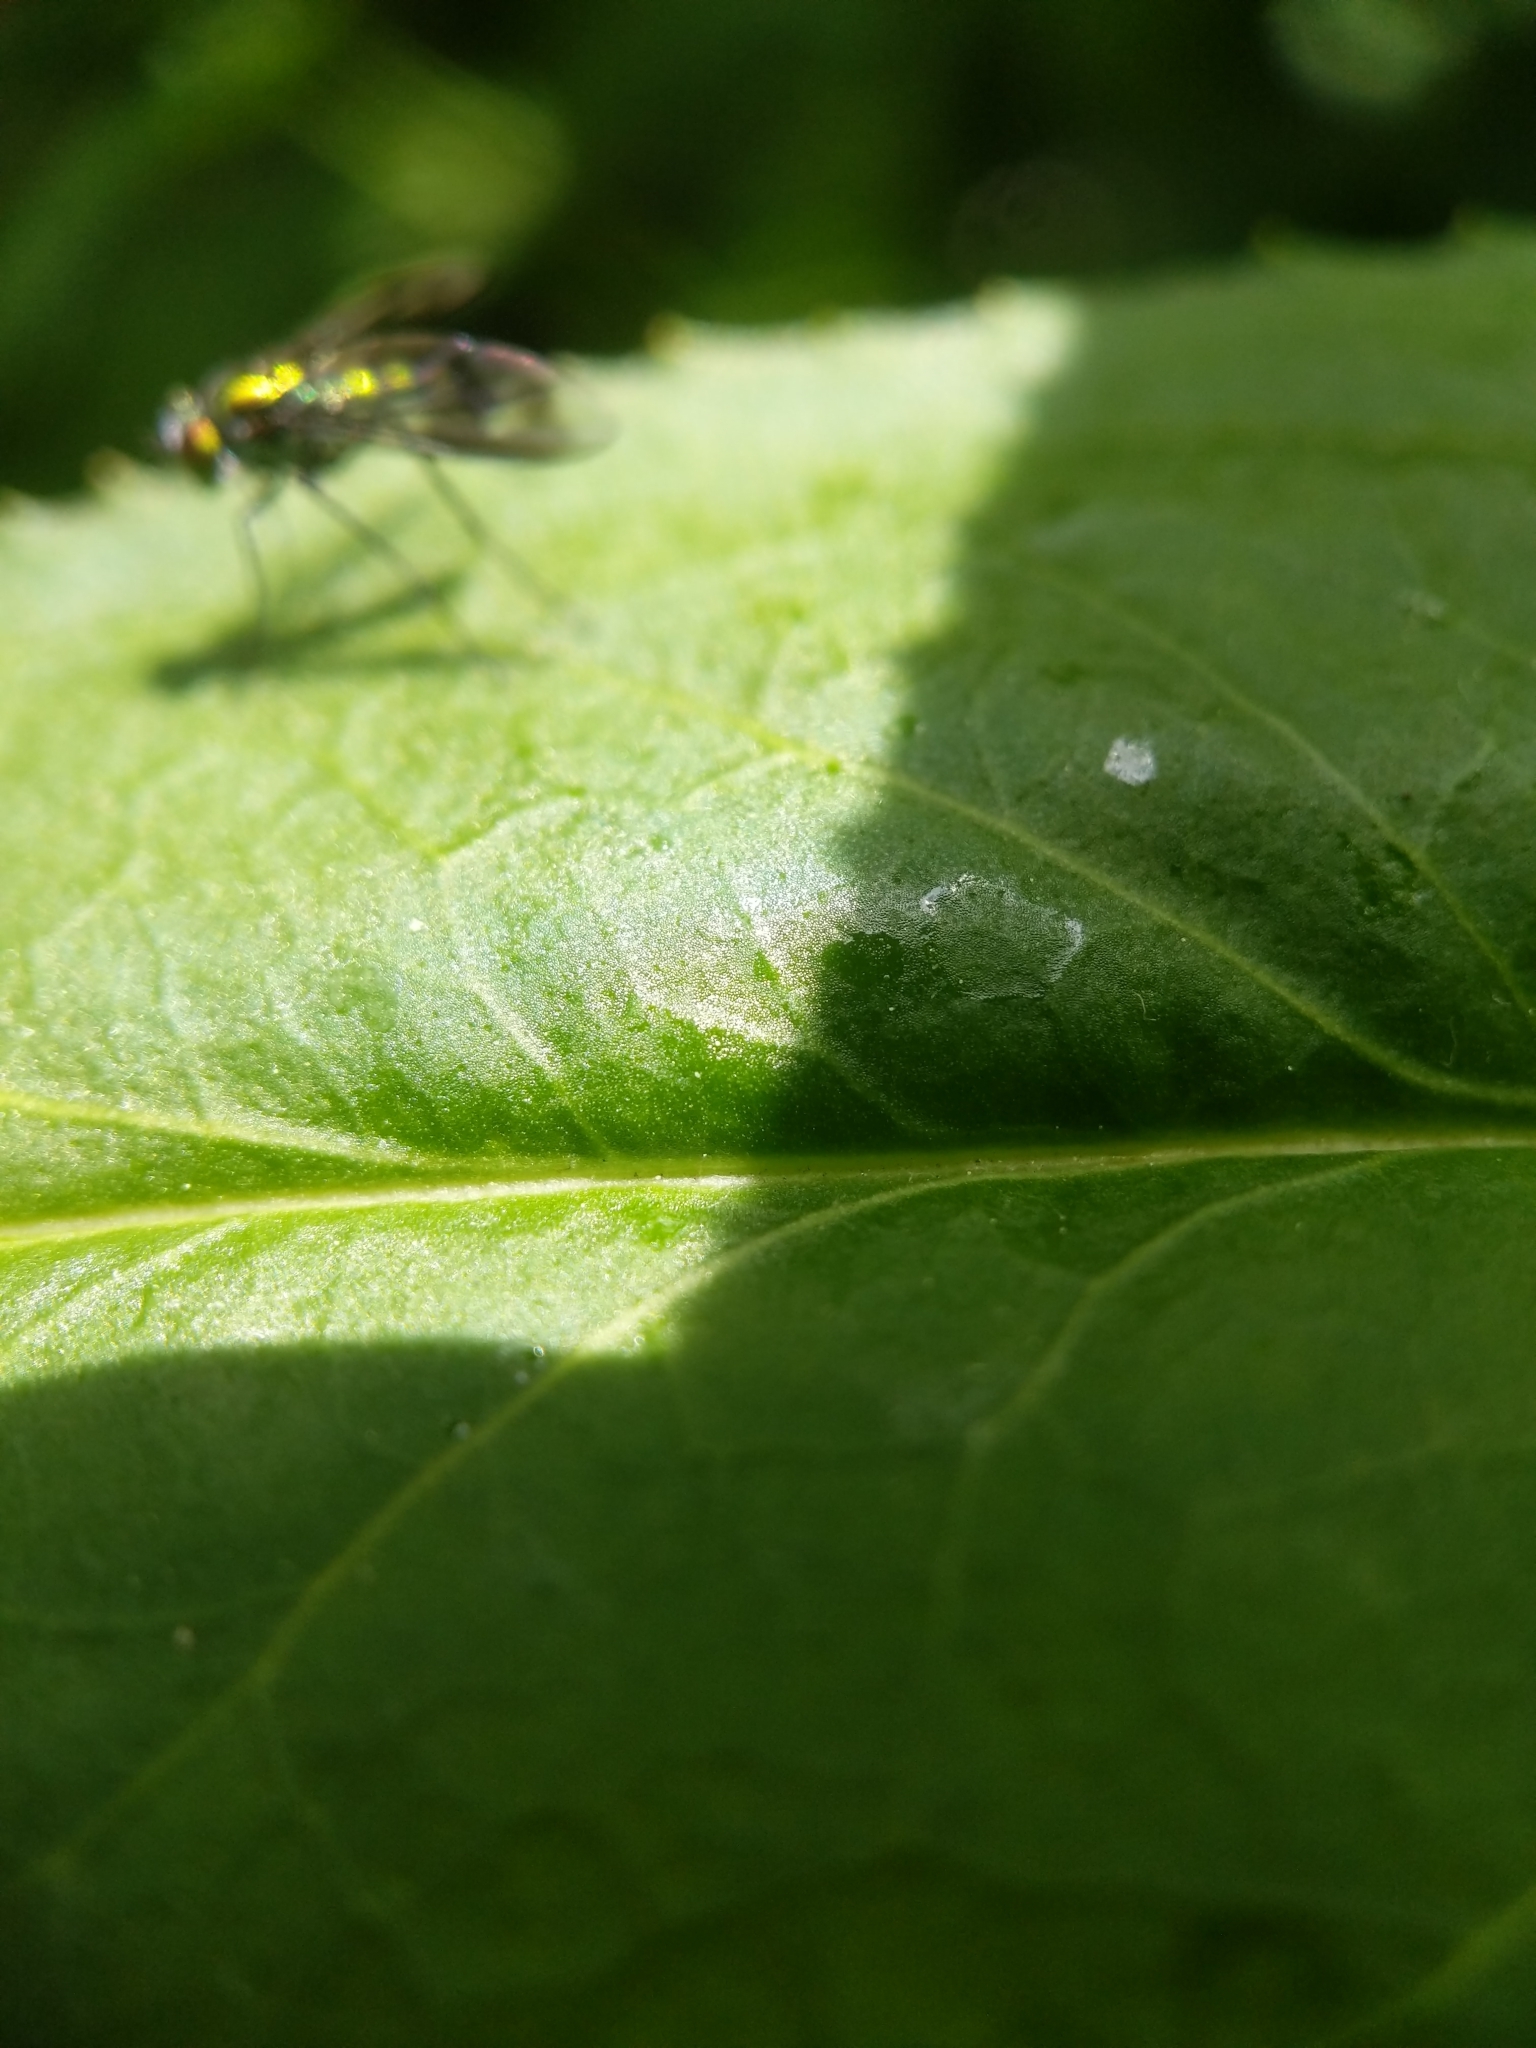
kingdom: Animalia
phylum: Arthropoda
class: Insecta
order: Diptera
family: Dolichopodidae
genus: Condylostylus
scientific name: Condylostylus patibulatus
